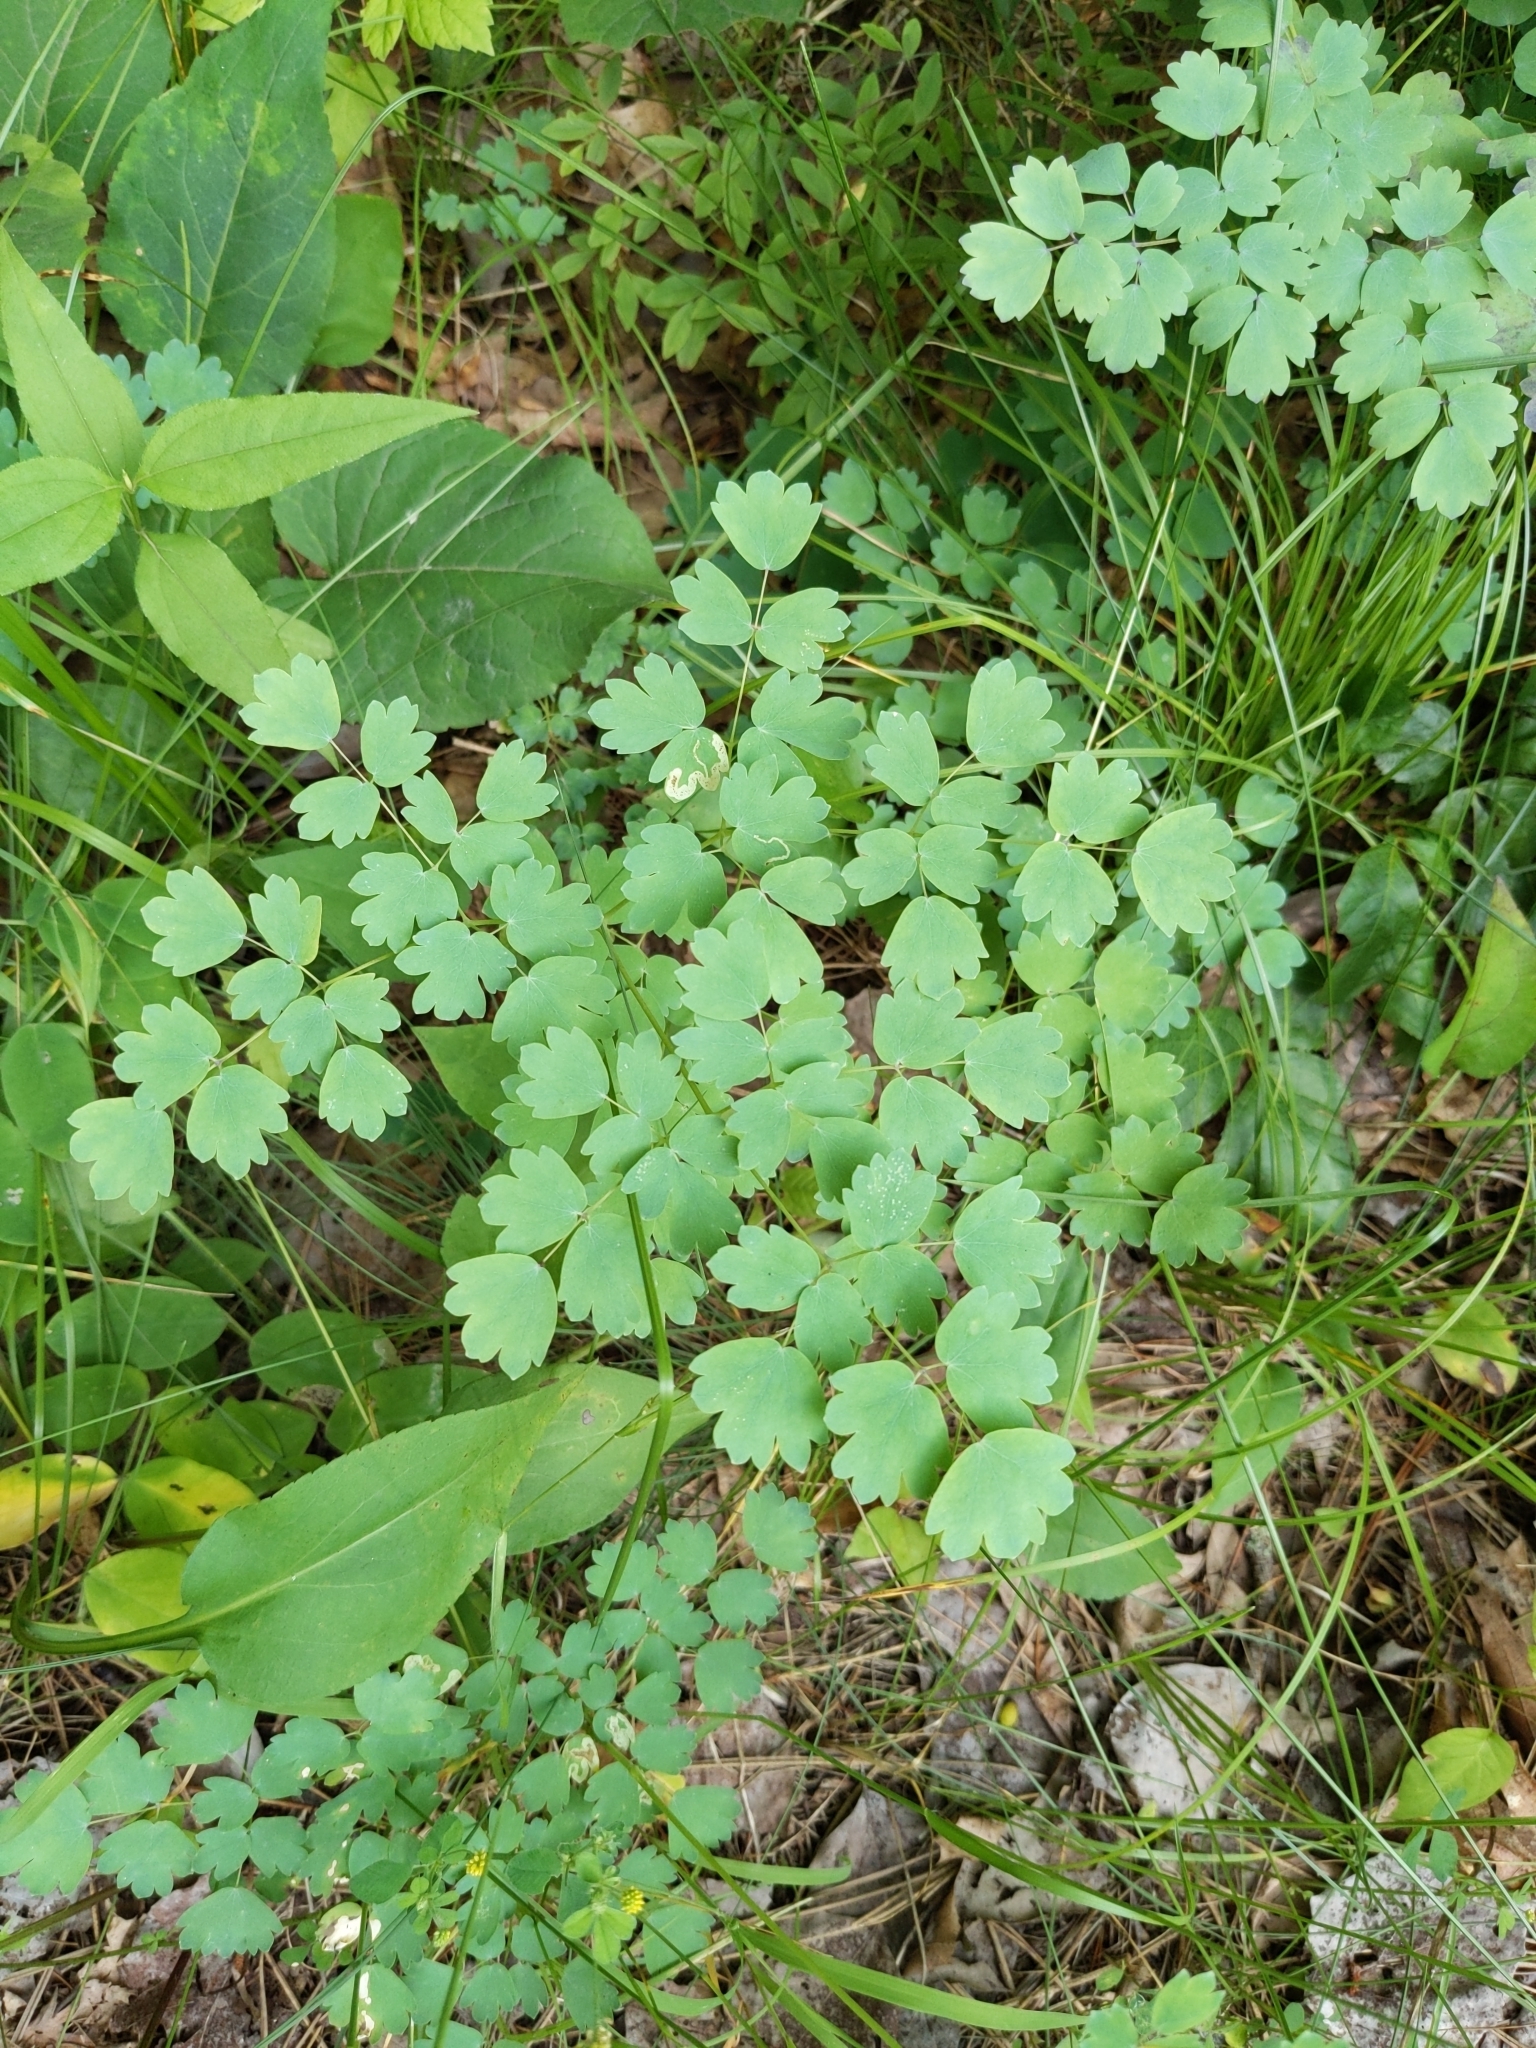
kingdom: Plantae
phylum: Tracheophyta
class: Magnoliopsida
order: Ranunculales
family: Ranunculaceae
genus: Thalictrum
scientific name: Thalictrum dioicum
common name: Early meadow-rue
